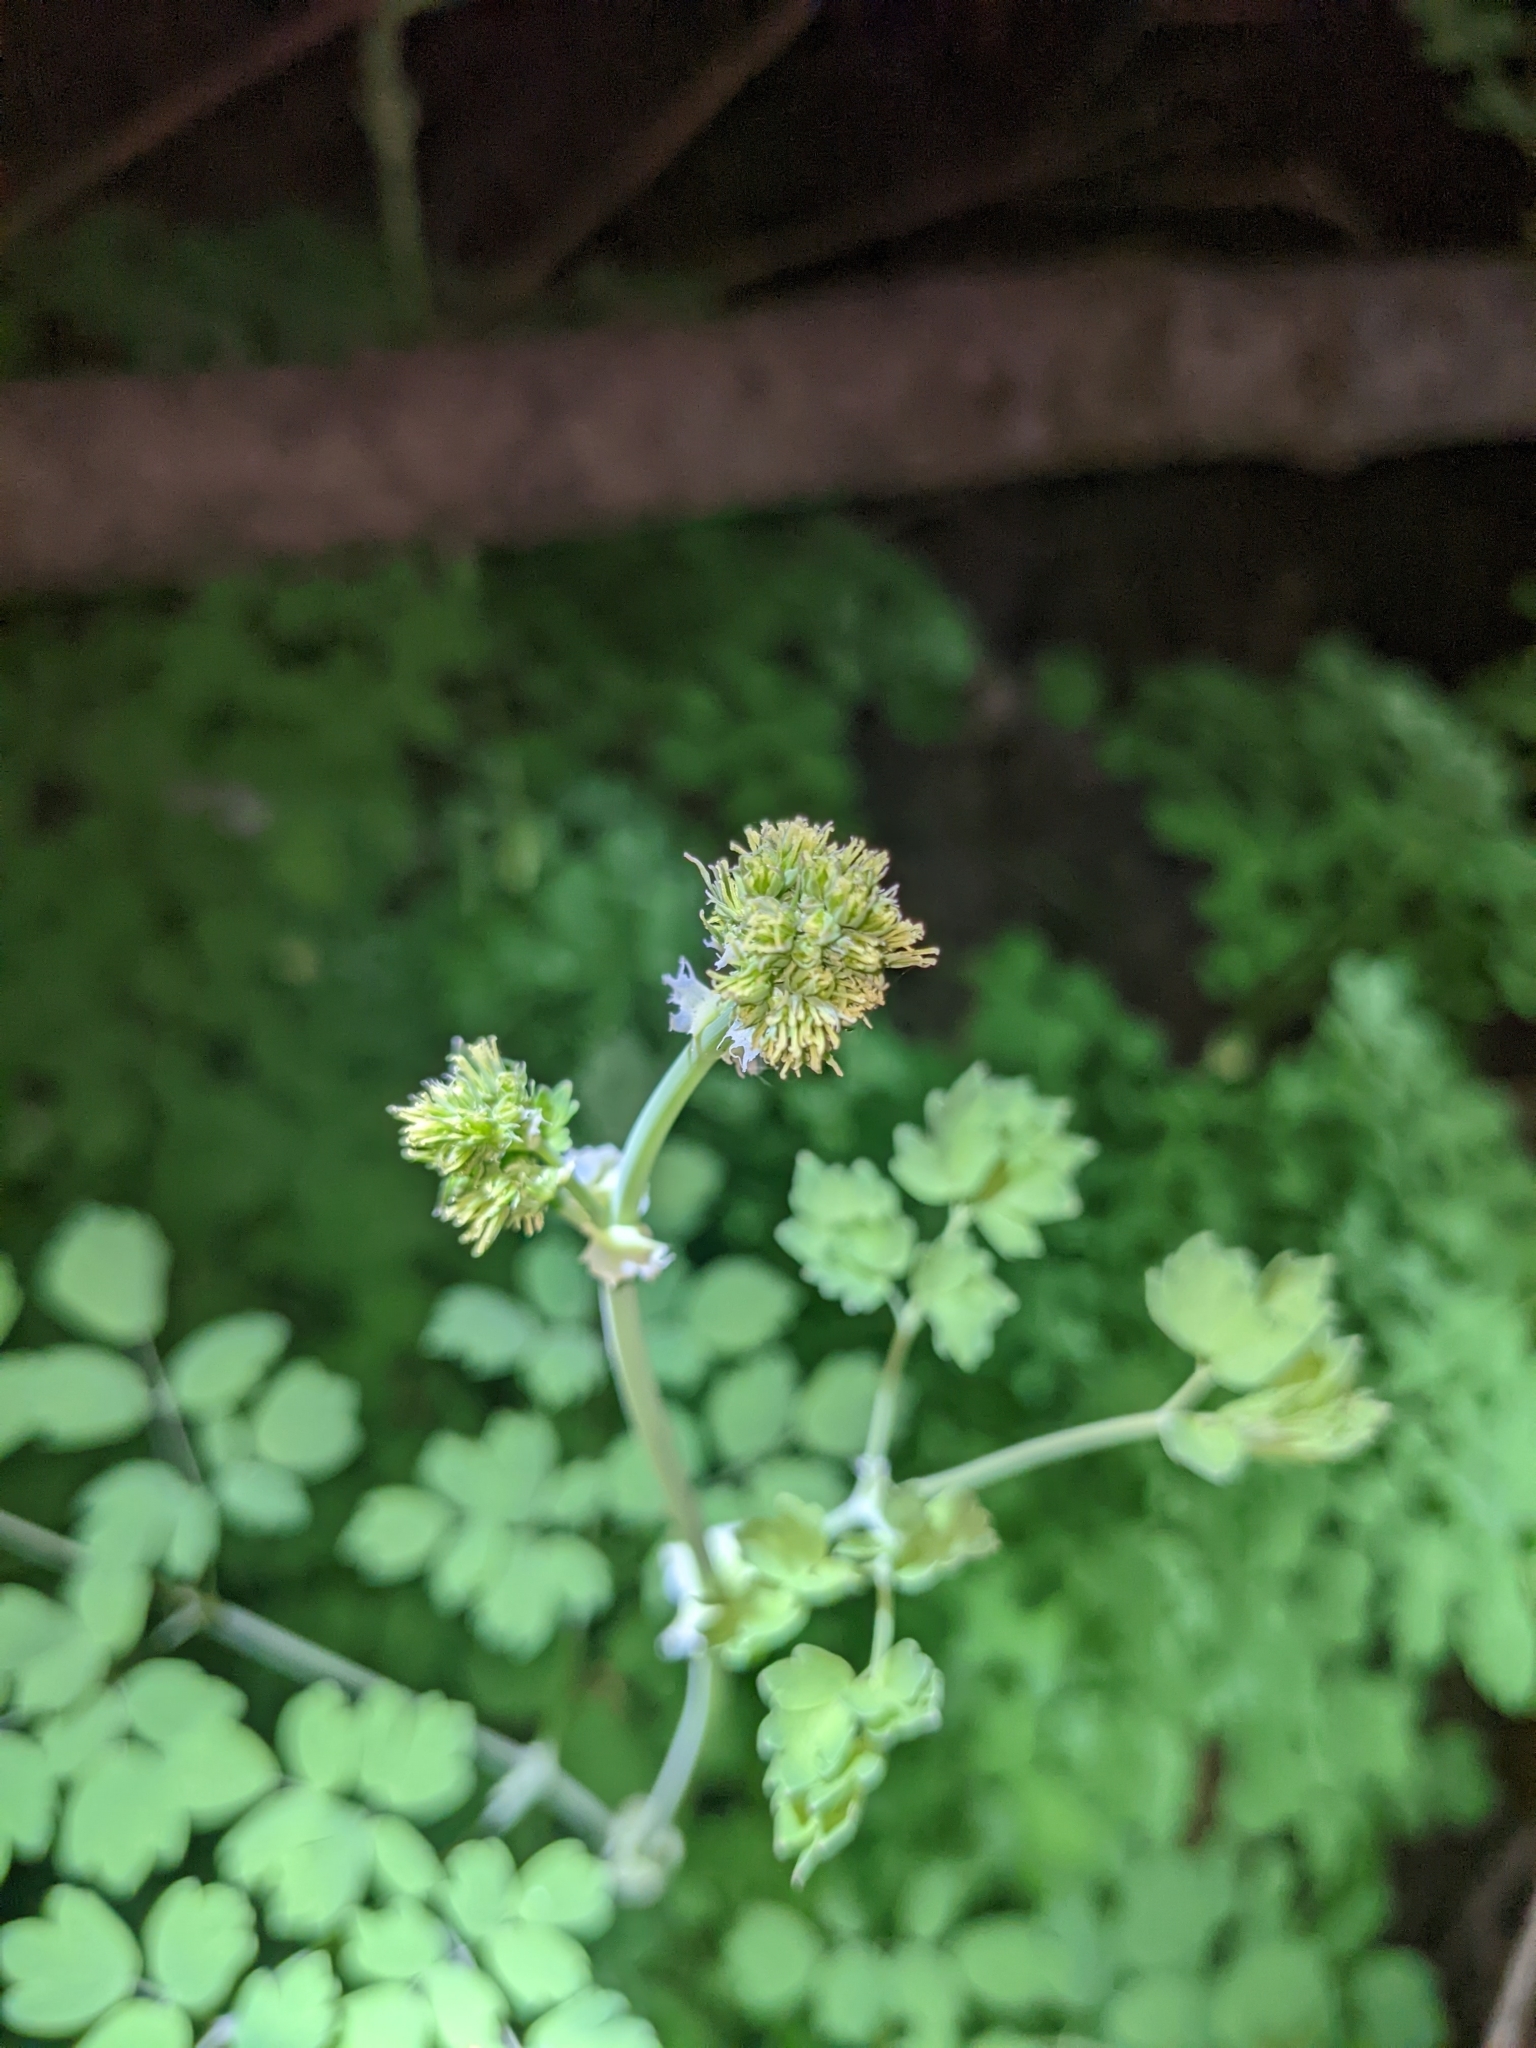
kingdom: Plantae
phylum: Tracheophyta
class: Magnoliopsida
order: Ranunculales
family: Ranunculaceae
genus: Thalictrum
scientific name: Thalictrum fendleri
